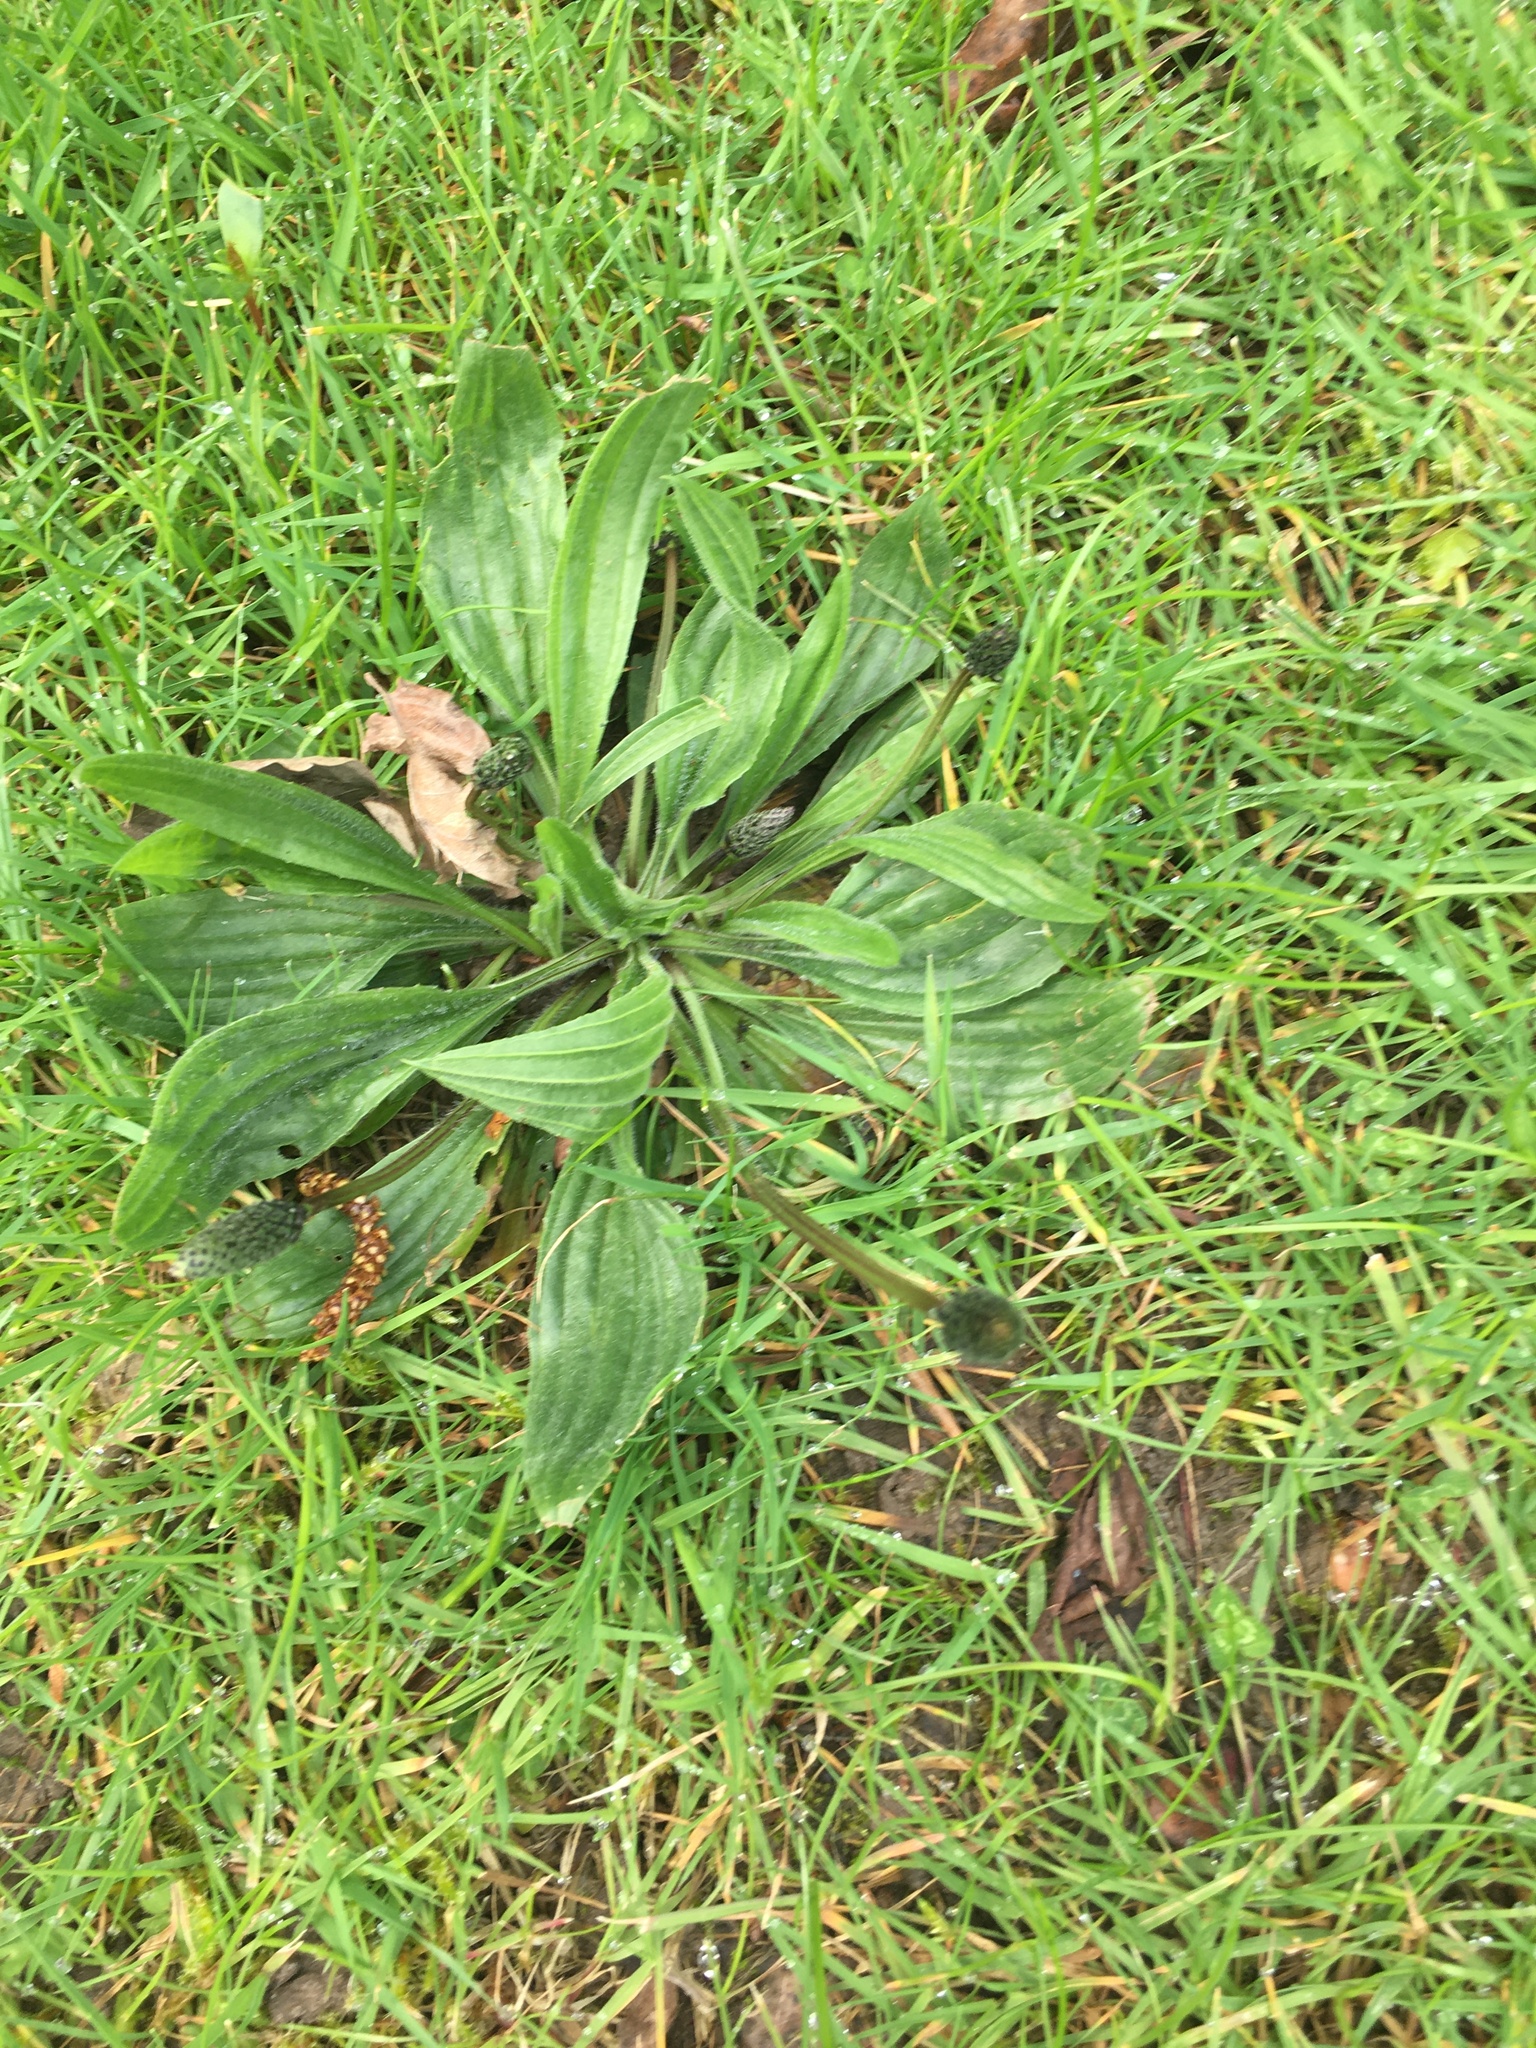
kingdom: Plantae
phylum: Tracheophyta
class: Magnoliopsida
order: Lamiales
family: Plantaginaceae
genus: Plantago
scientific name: Plantago lanceolata
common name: Ribwort plantain
